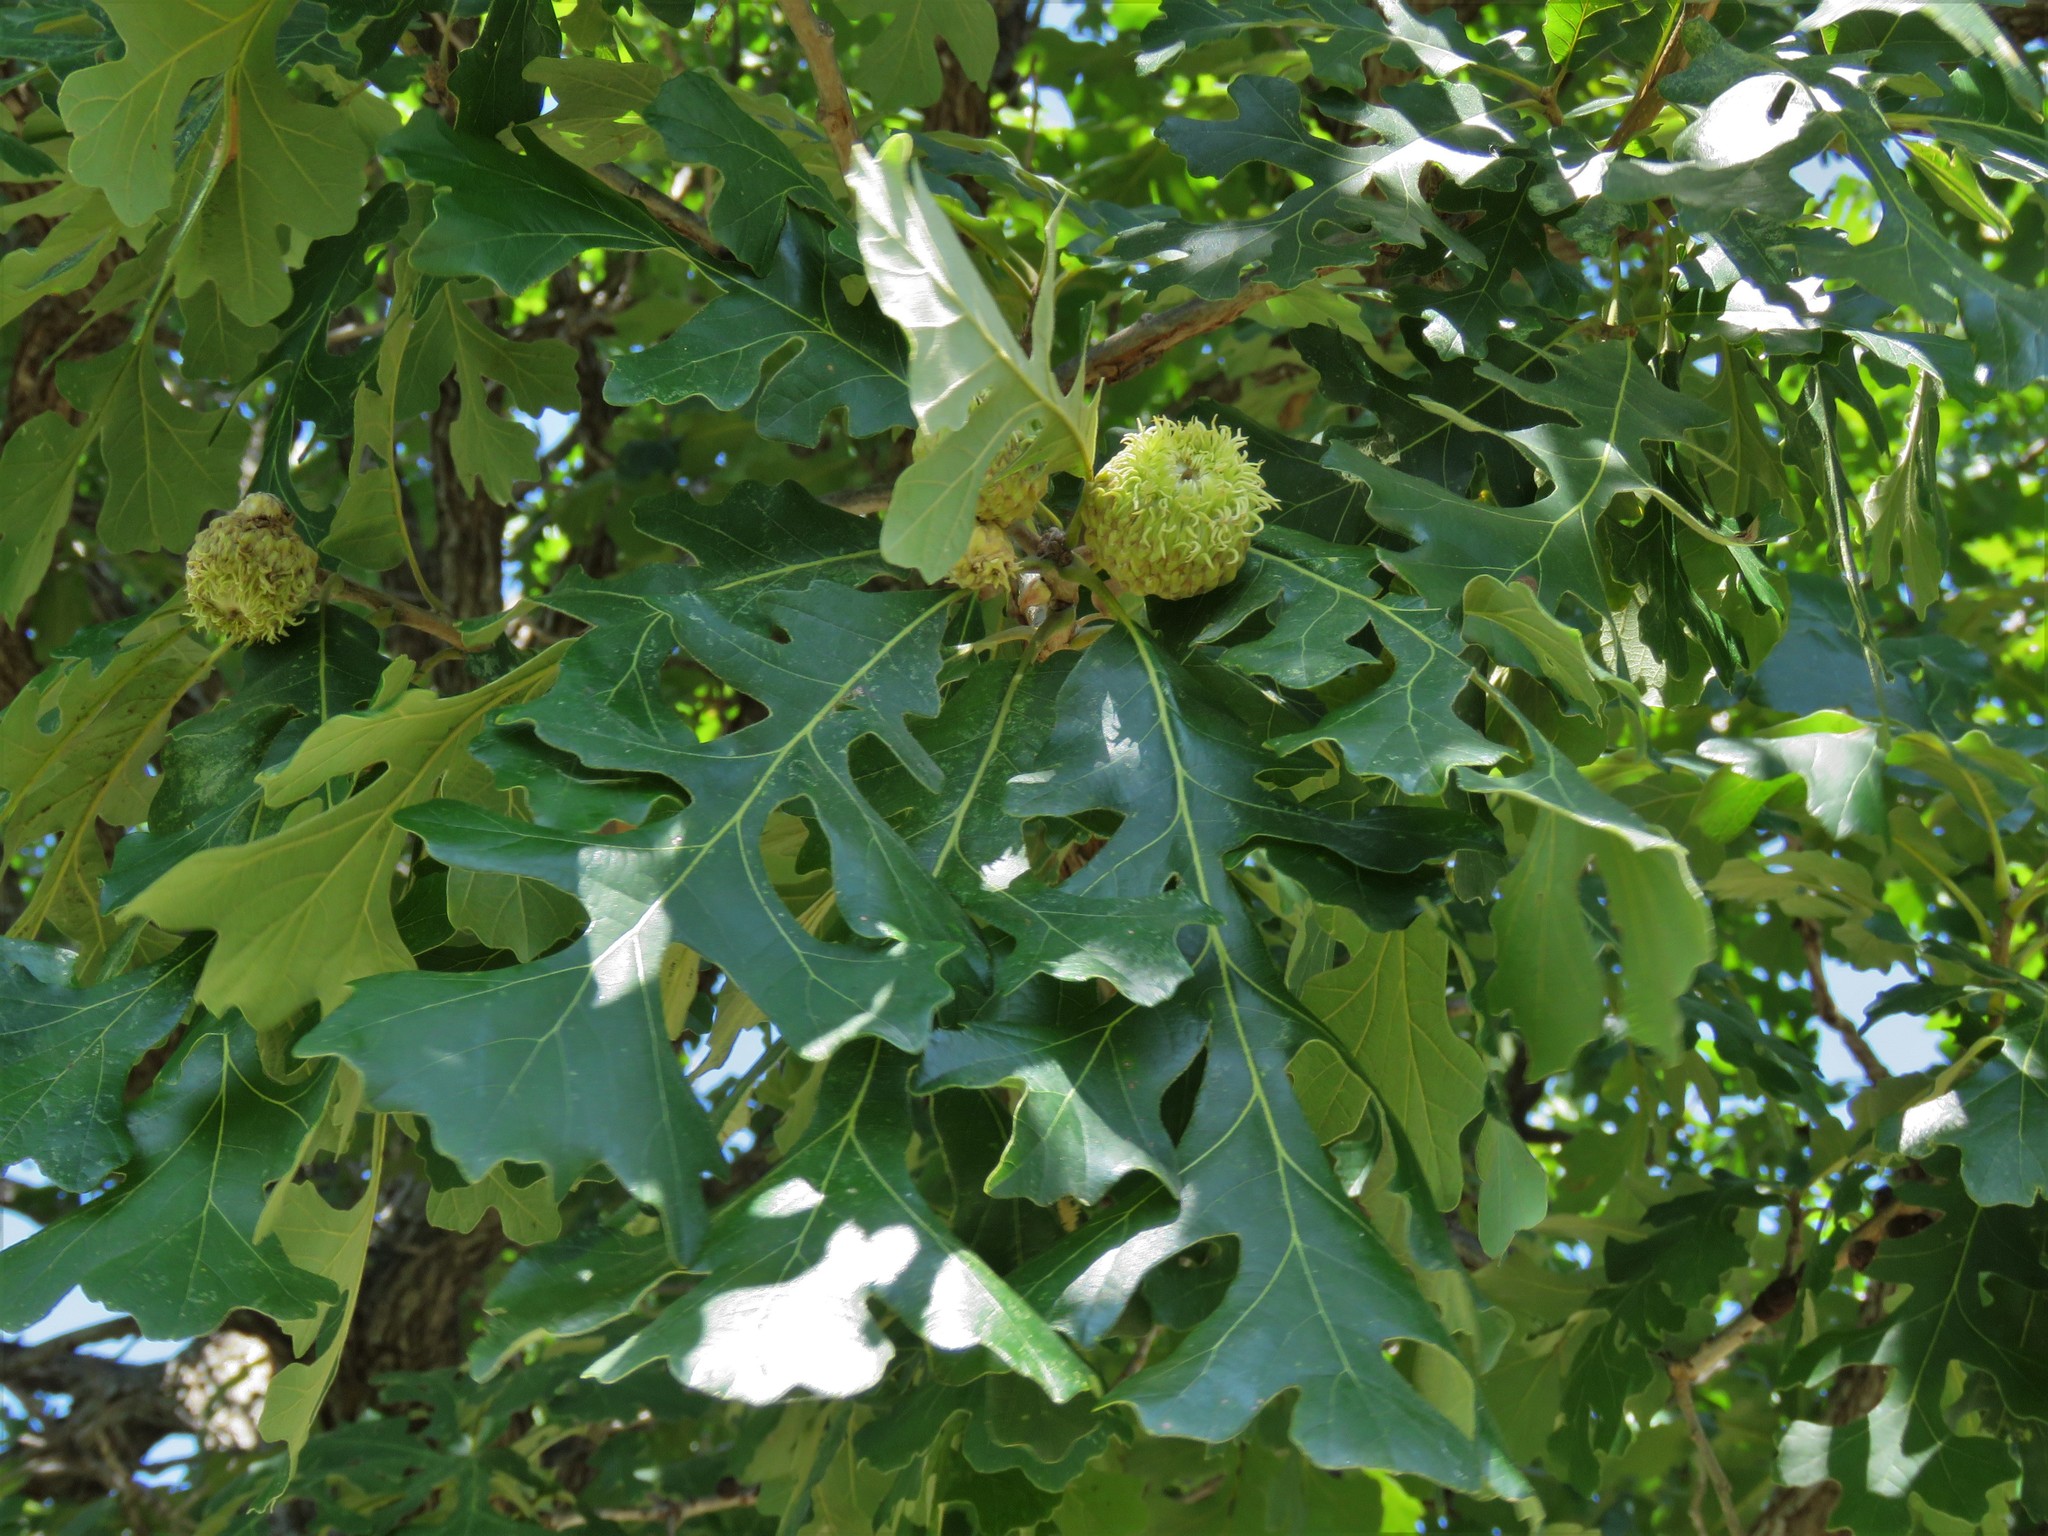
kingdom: Plantae
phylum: Tracheophyta
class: Magnoliopsida
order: Fagales
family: Fagaceae
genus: Quercus
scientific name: Quercus macrocarpa
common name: Bur oak
